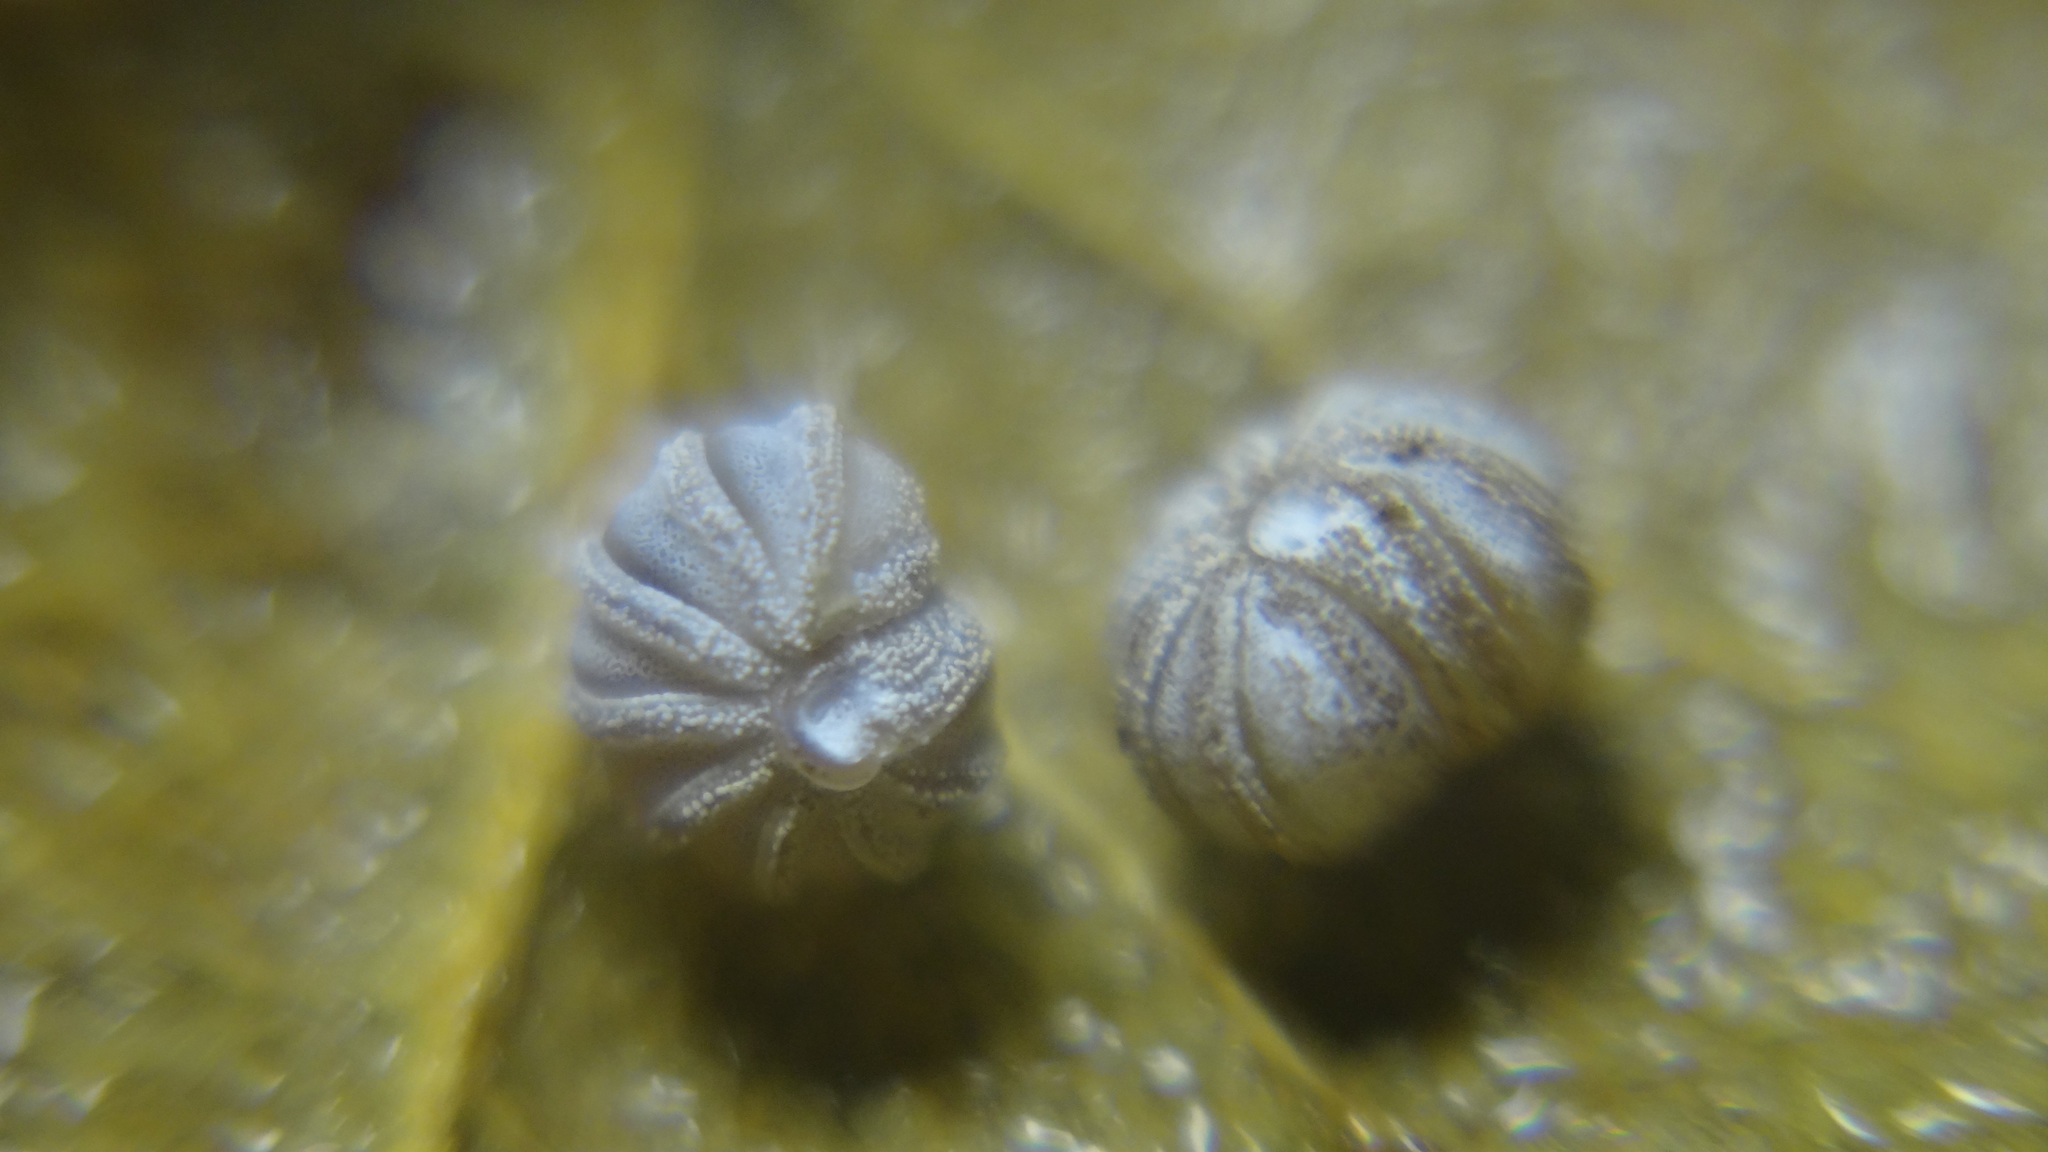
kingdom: Animalia
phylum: Arthropoda
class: Diplopoda
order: Glomerida
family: Glomeridae
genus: Trachysphaera
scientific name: Trachysphaera costata
